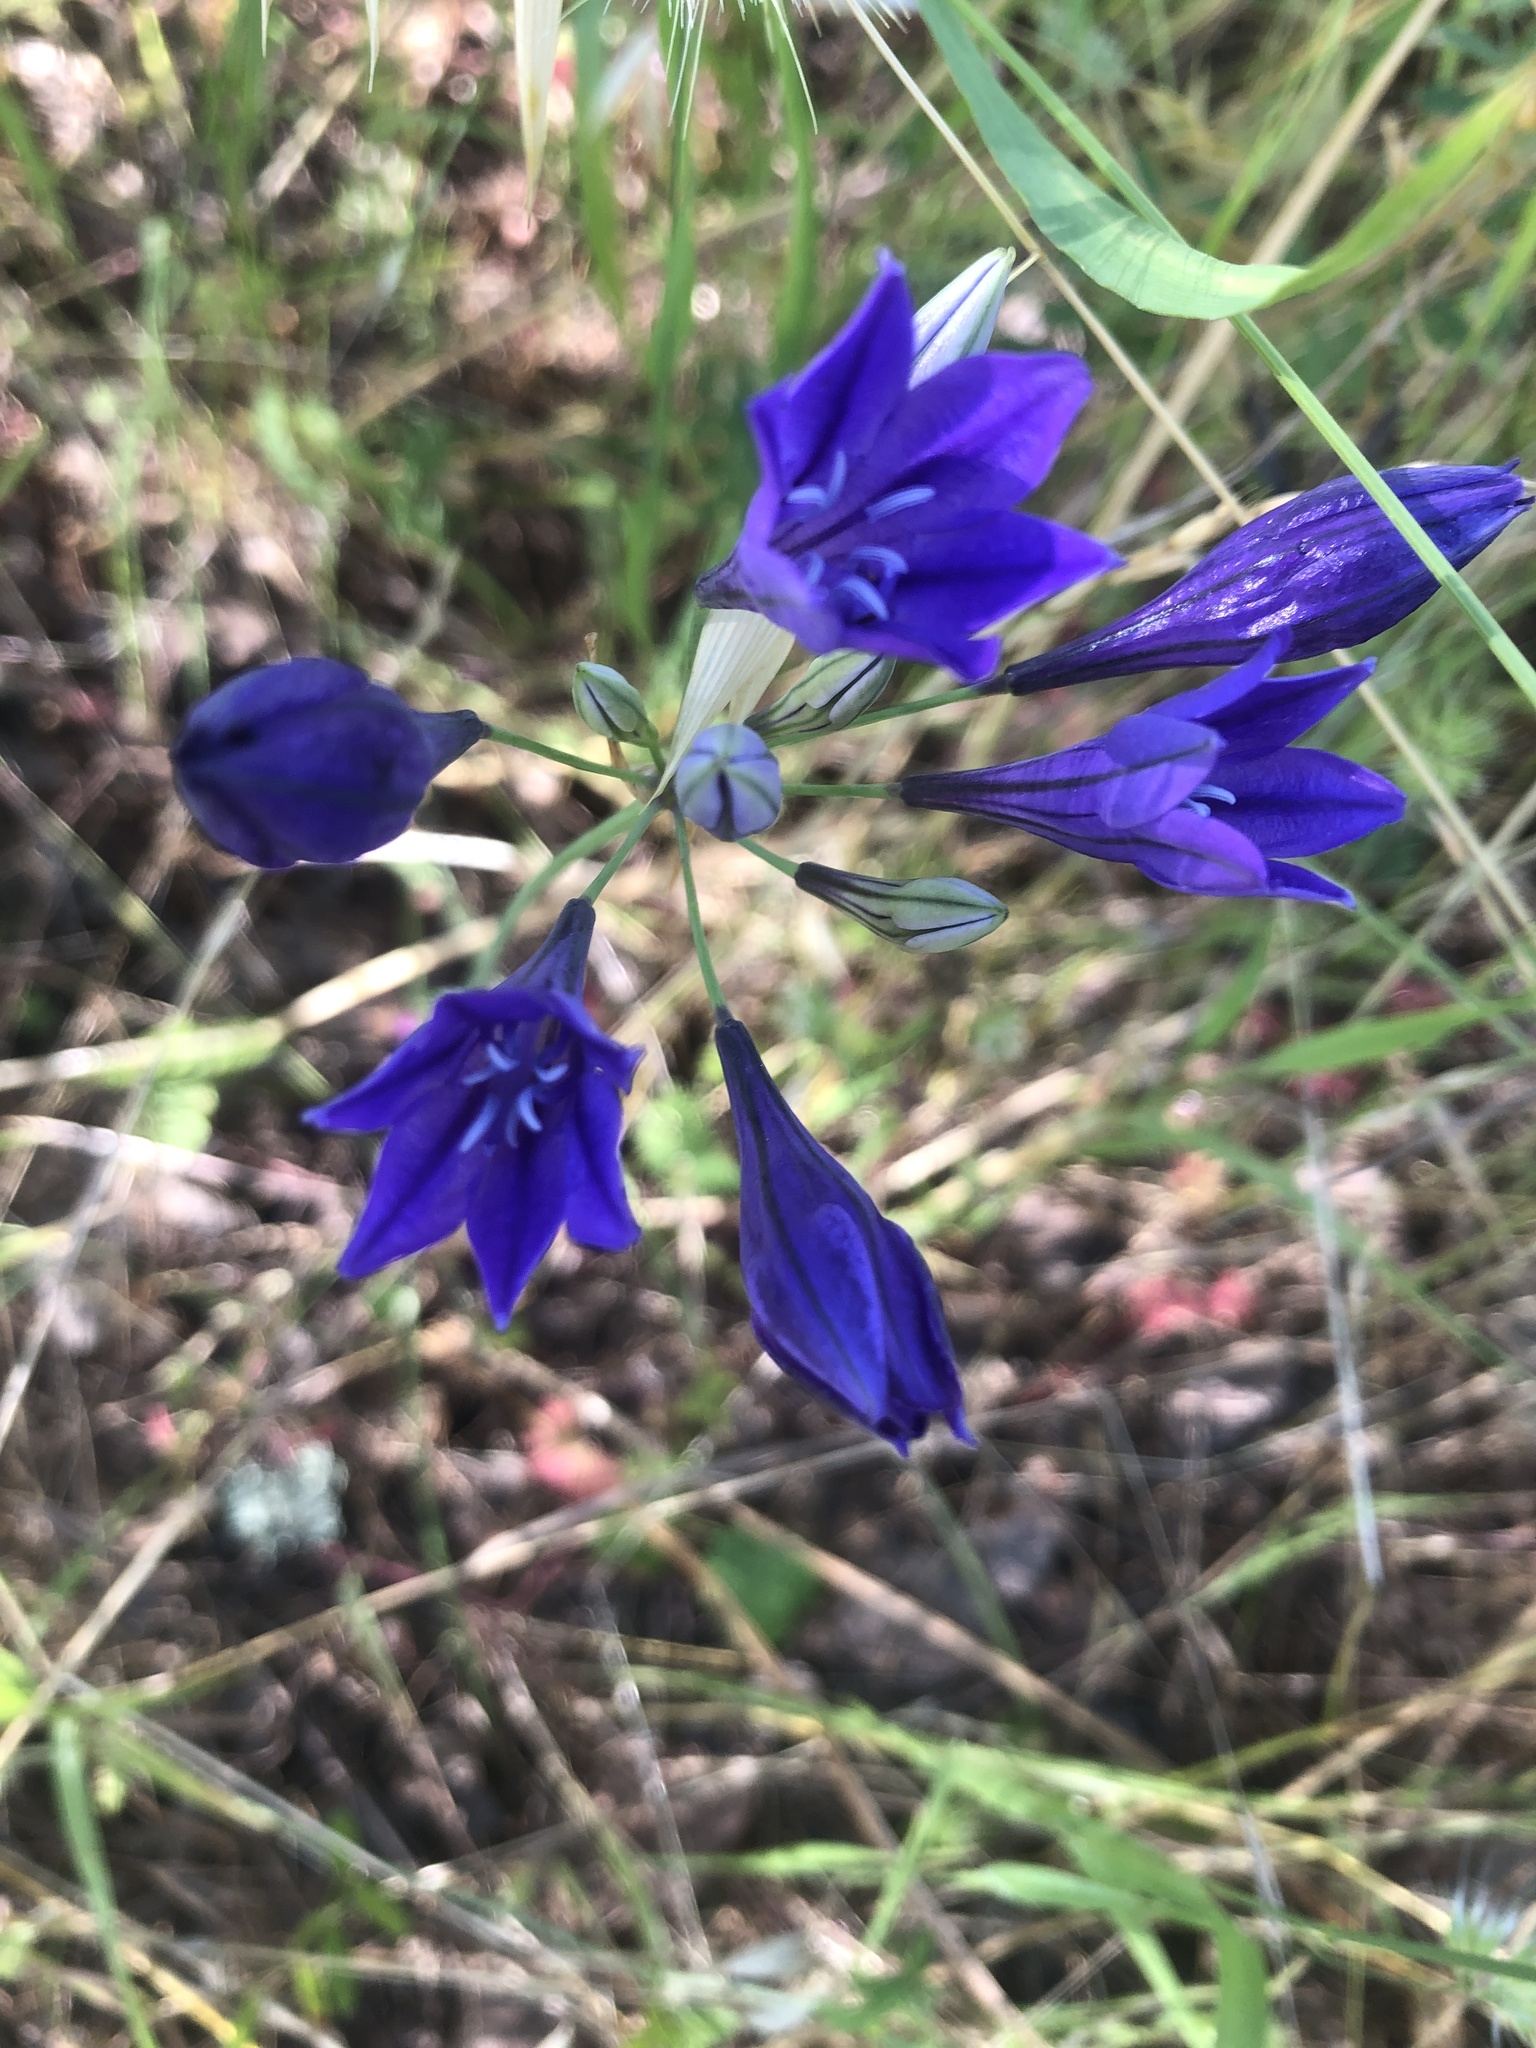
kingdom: Plantae
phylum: Tracheophyta
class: Liliopsida
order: Asparagales
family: Asparagaceae
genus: Triteleia
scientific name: Triteleia laxa
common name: Triplet-lily
